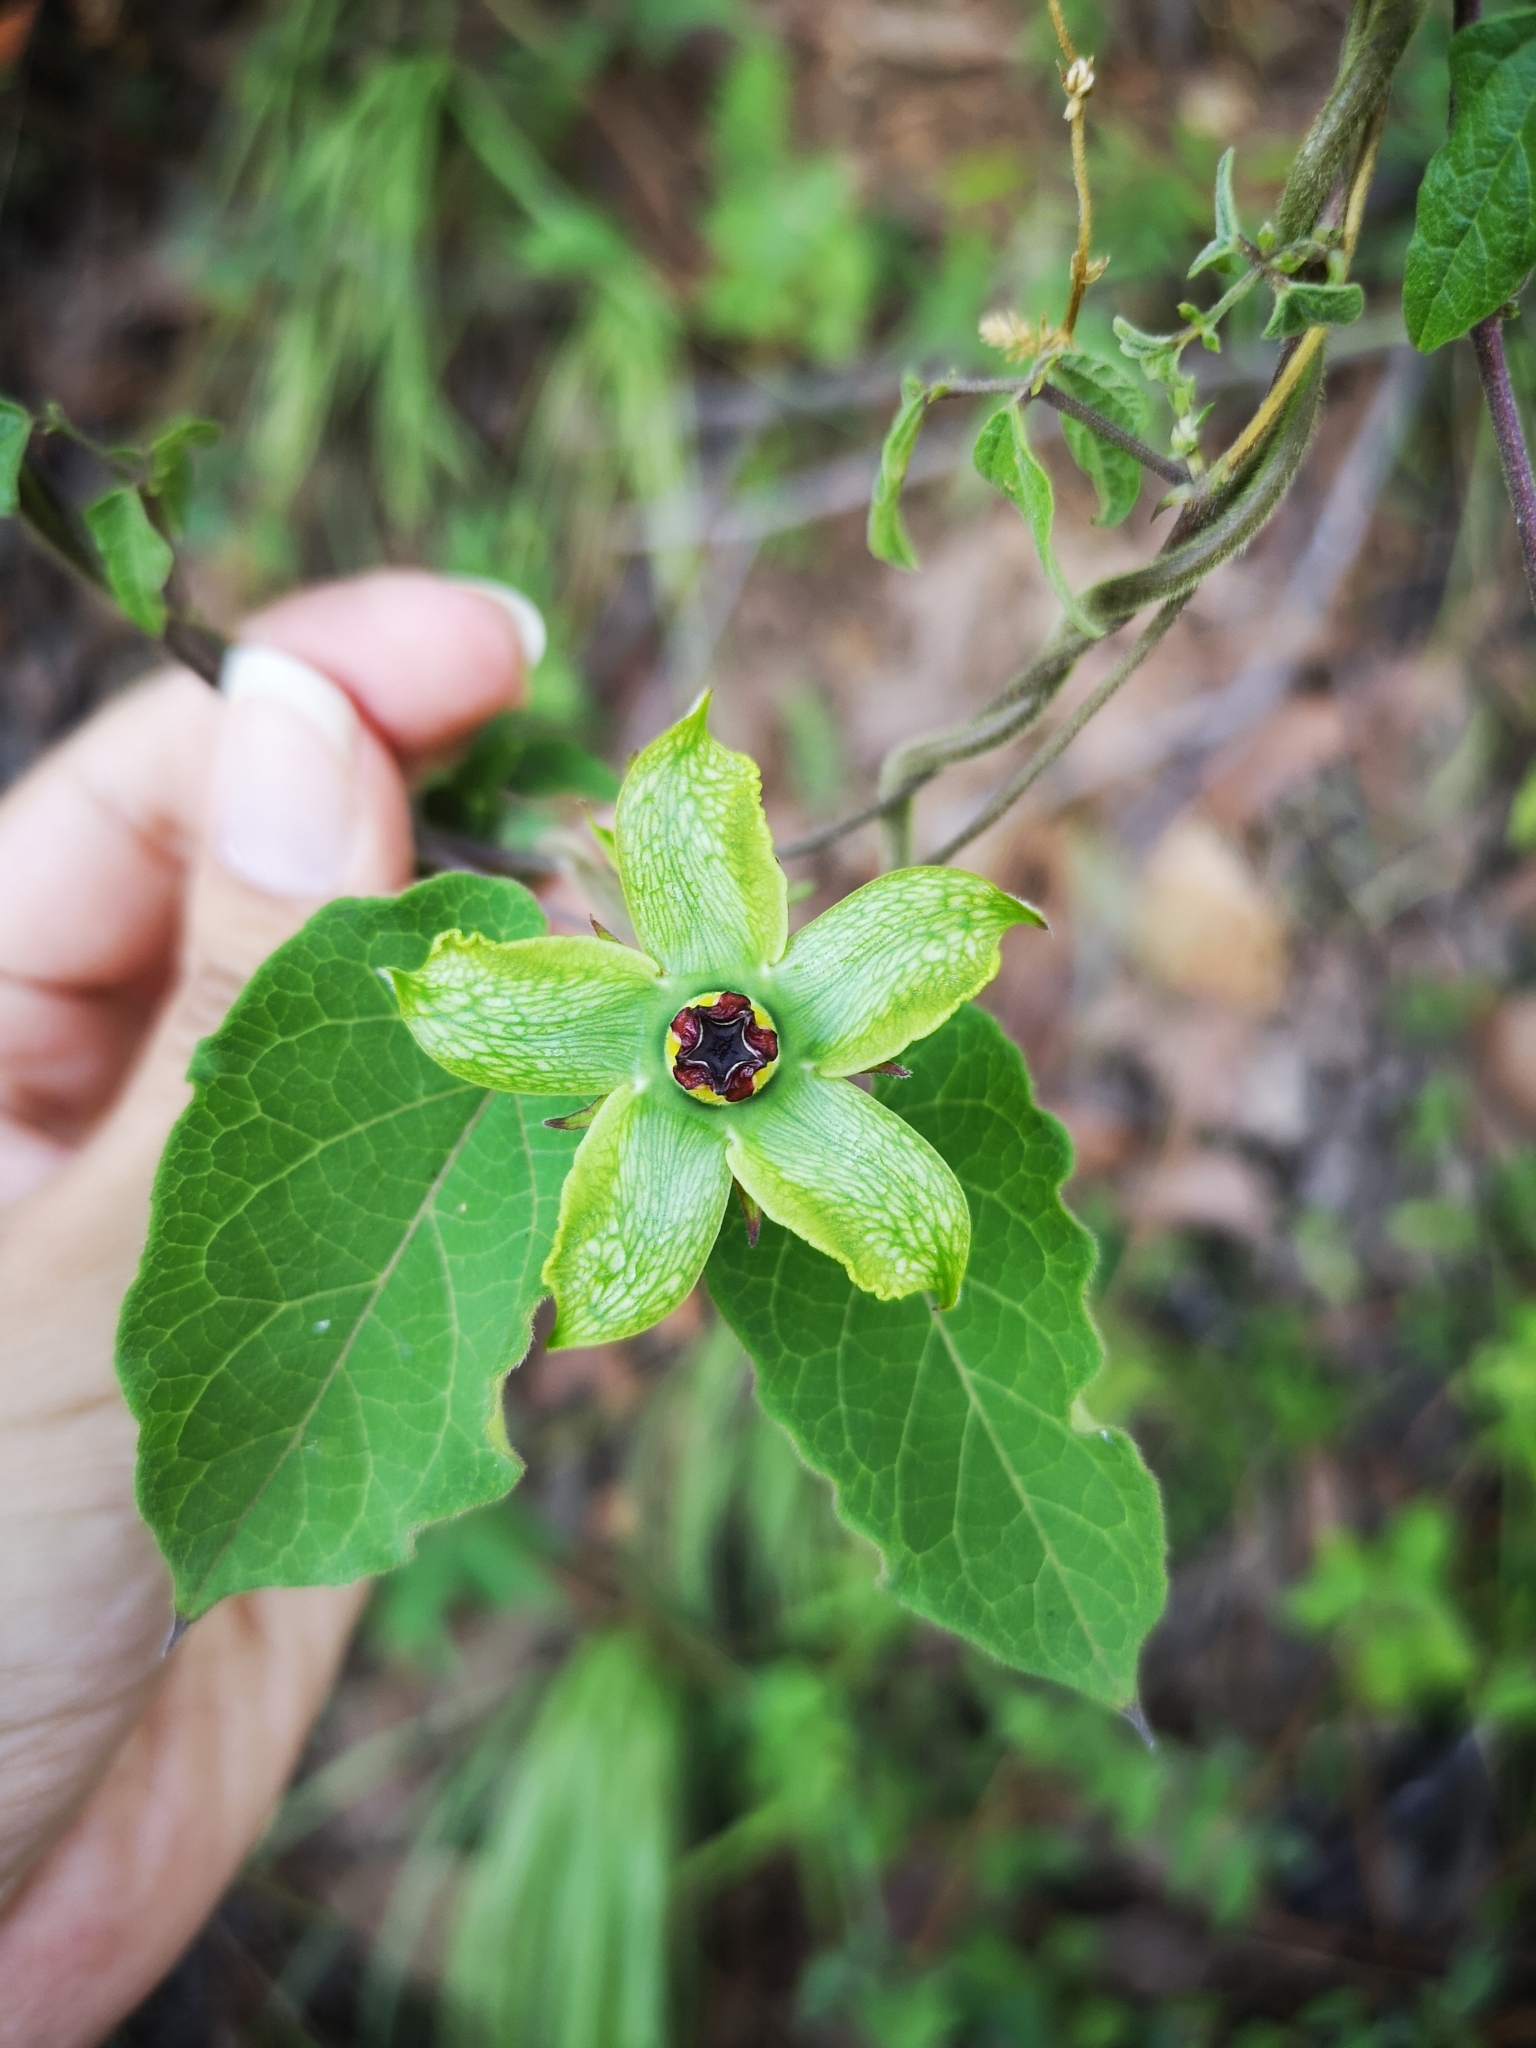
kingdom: Plantae
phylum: Tracheophyta
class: Magnoliopsida
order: Gentianales
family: Apocynaceae
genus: Gonolobus
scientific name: Gonolobus erianthus
